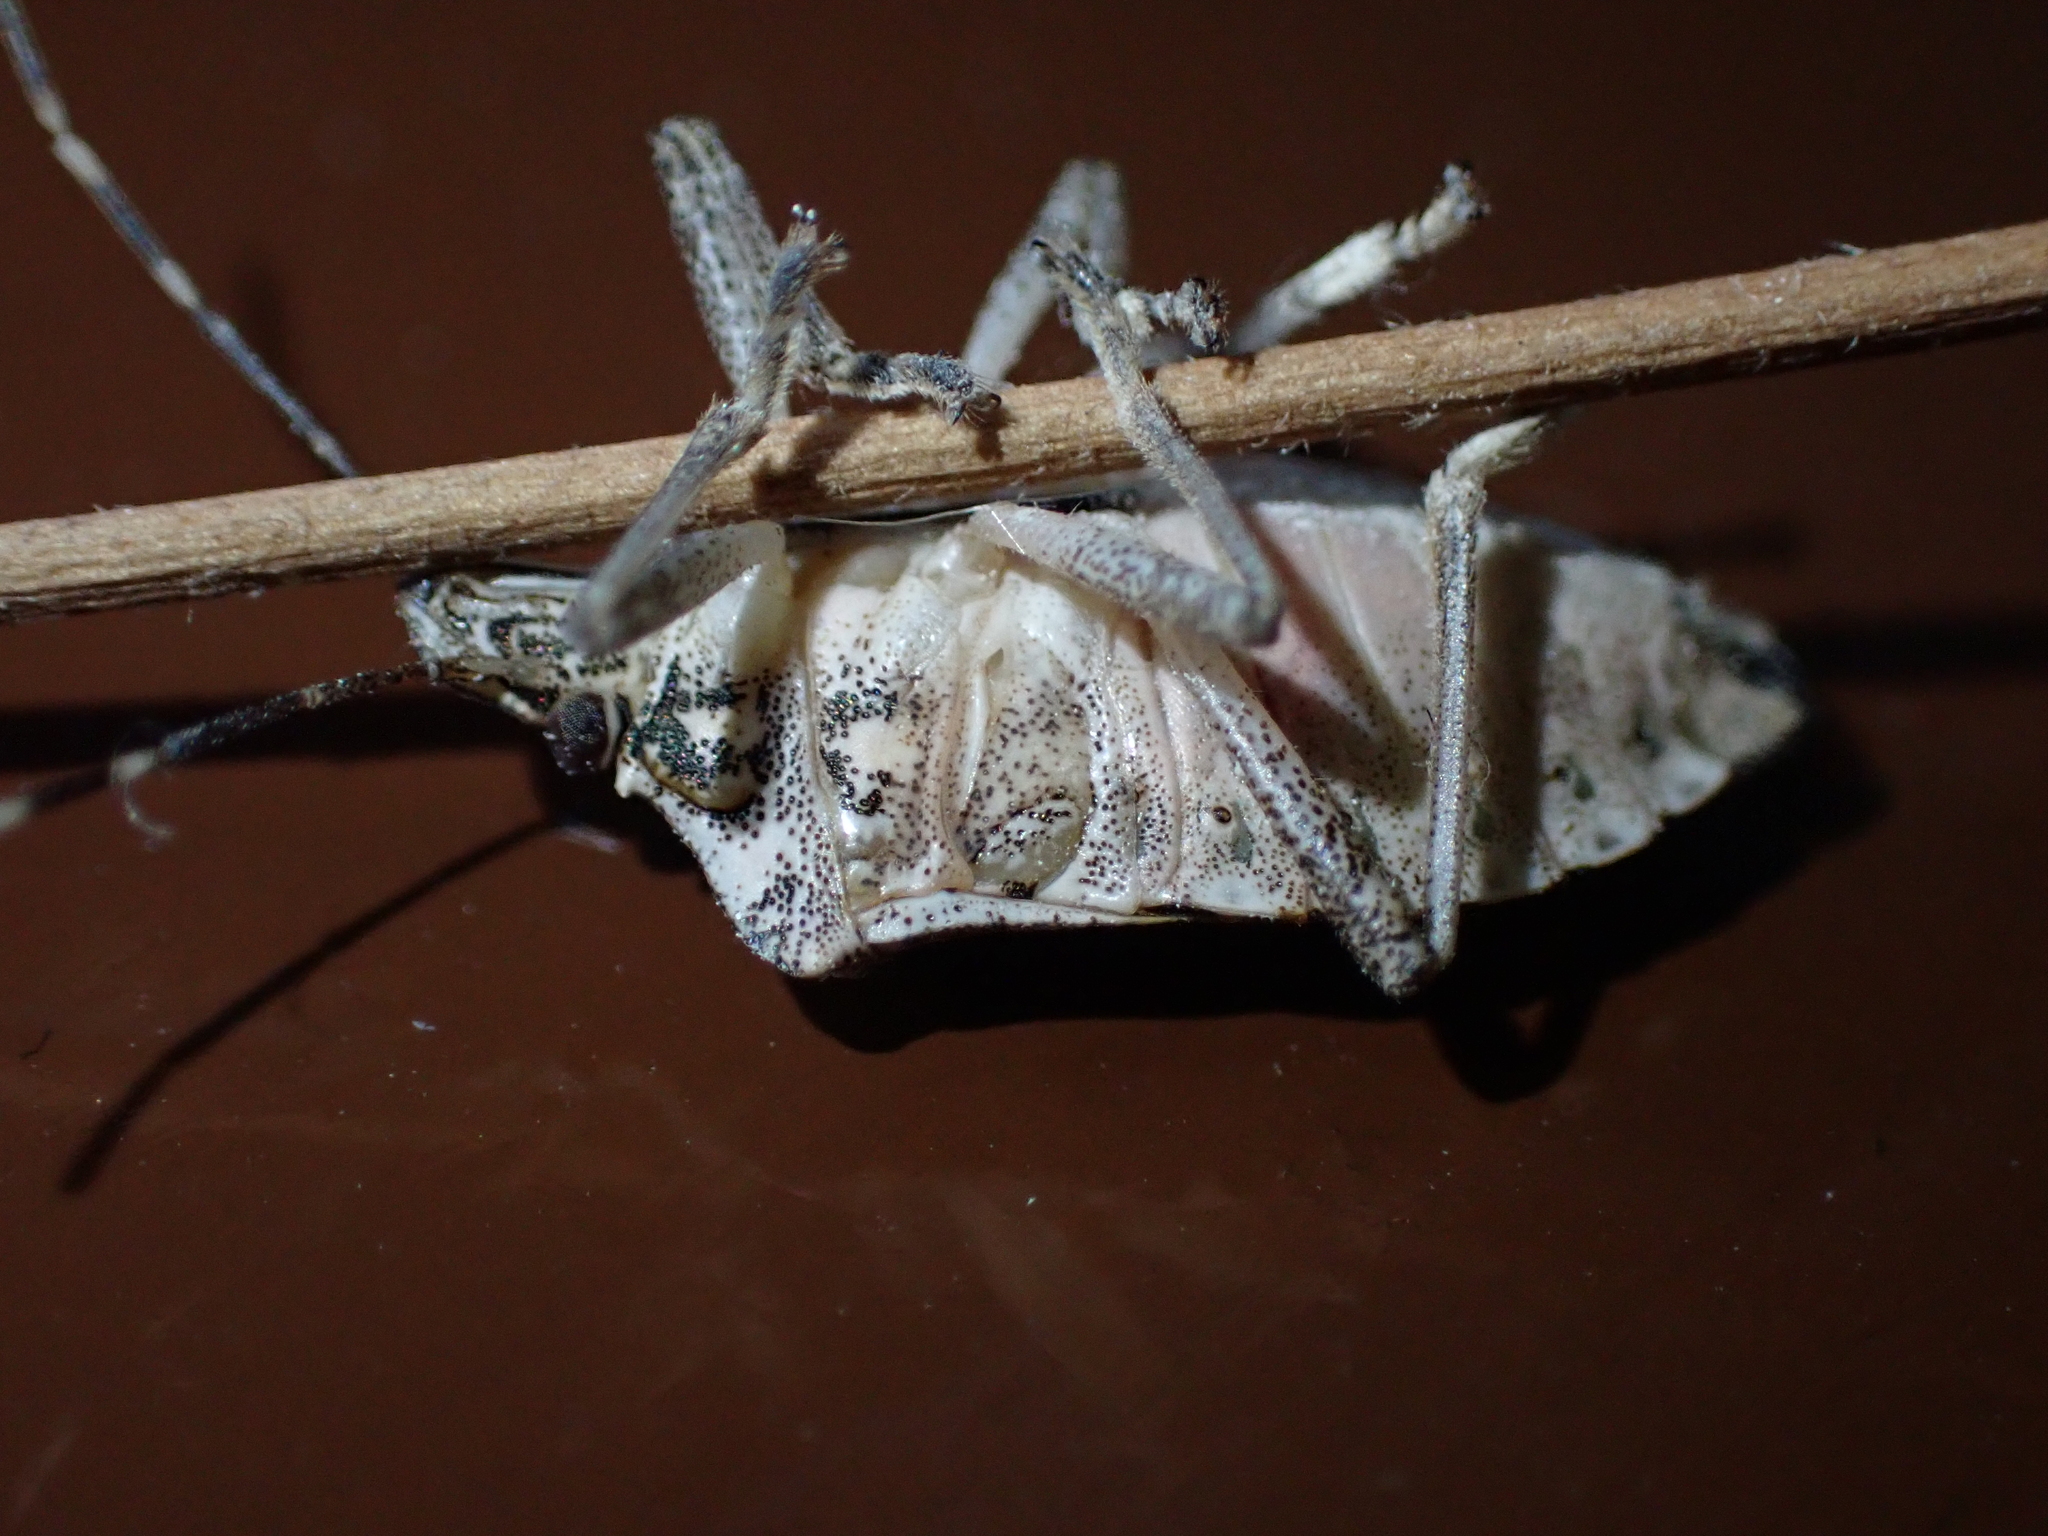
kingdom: Animalia
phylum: Arthropoda
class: Insecta
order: Hemiptera
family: Pentatomidae
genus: Halyomorpha
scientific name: Halyomorpha halys
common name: Brown marmorated stink bug
